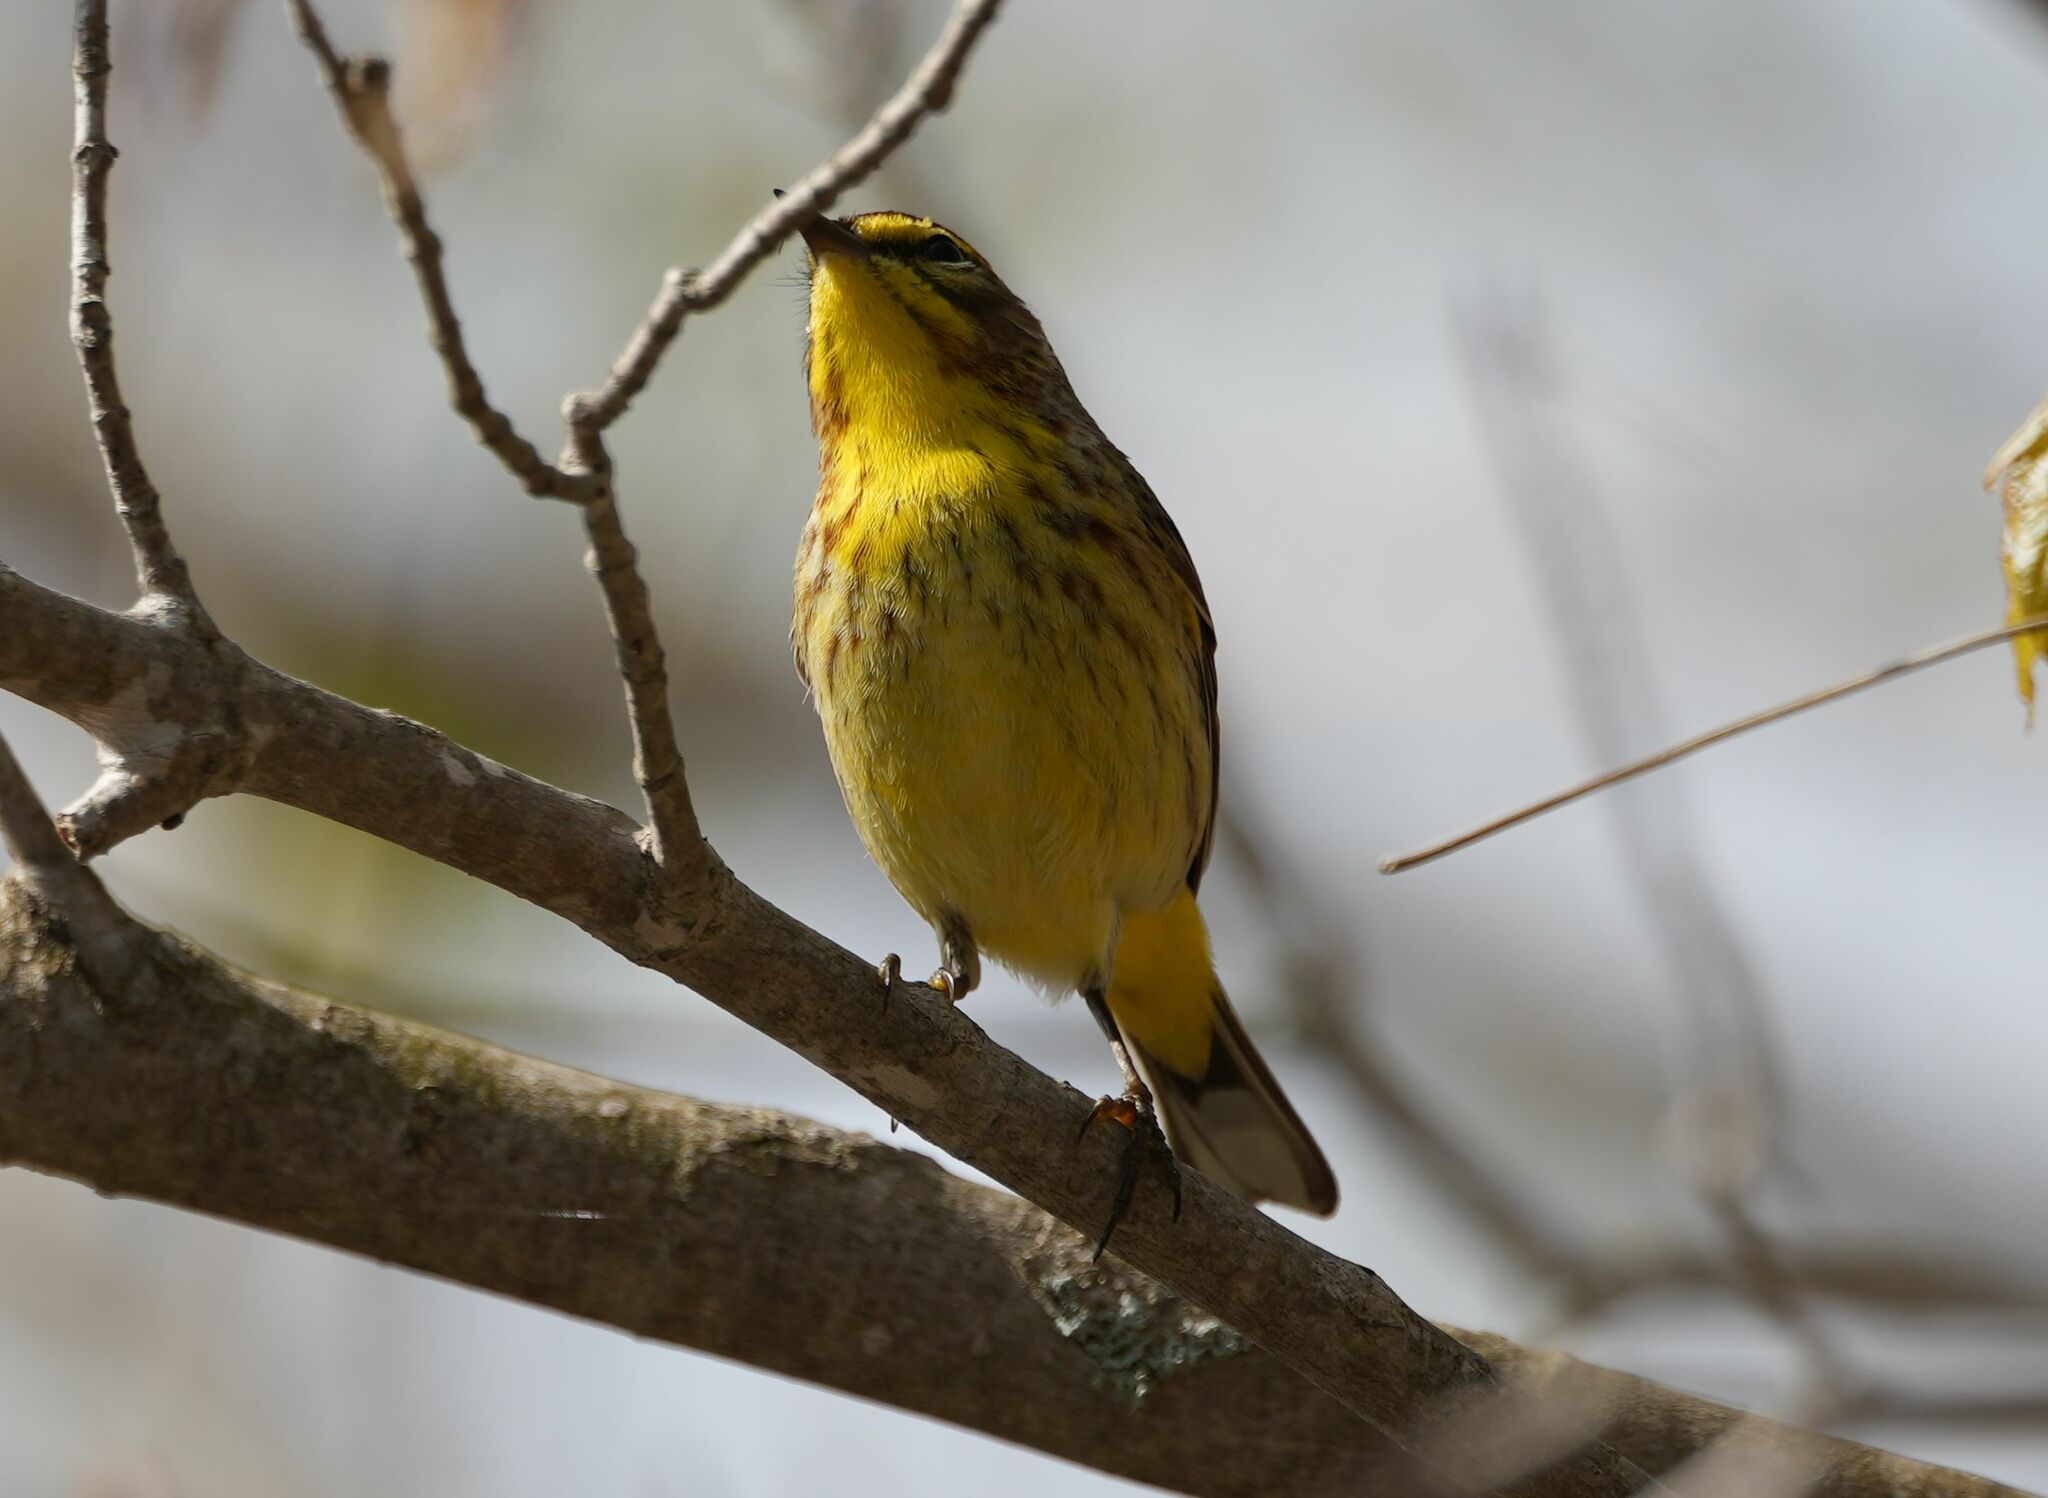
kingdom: Animalia
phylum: Chordata
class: Aves
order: Passeriformes
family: Parulidae
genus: Setophaga
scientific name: Setophaga palmarum
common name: Palm warbler
